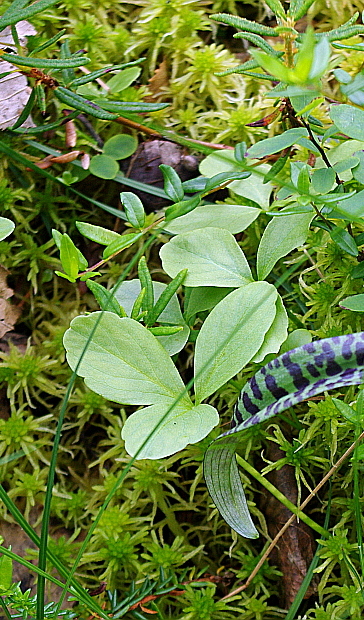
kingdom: Plantae
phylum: Tracheophyta
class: Magnoliopsida
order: Asterales
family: Menyanthaceae
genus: Menyanthes
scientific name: Menyanthes trifoliata
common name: Bogbean
